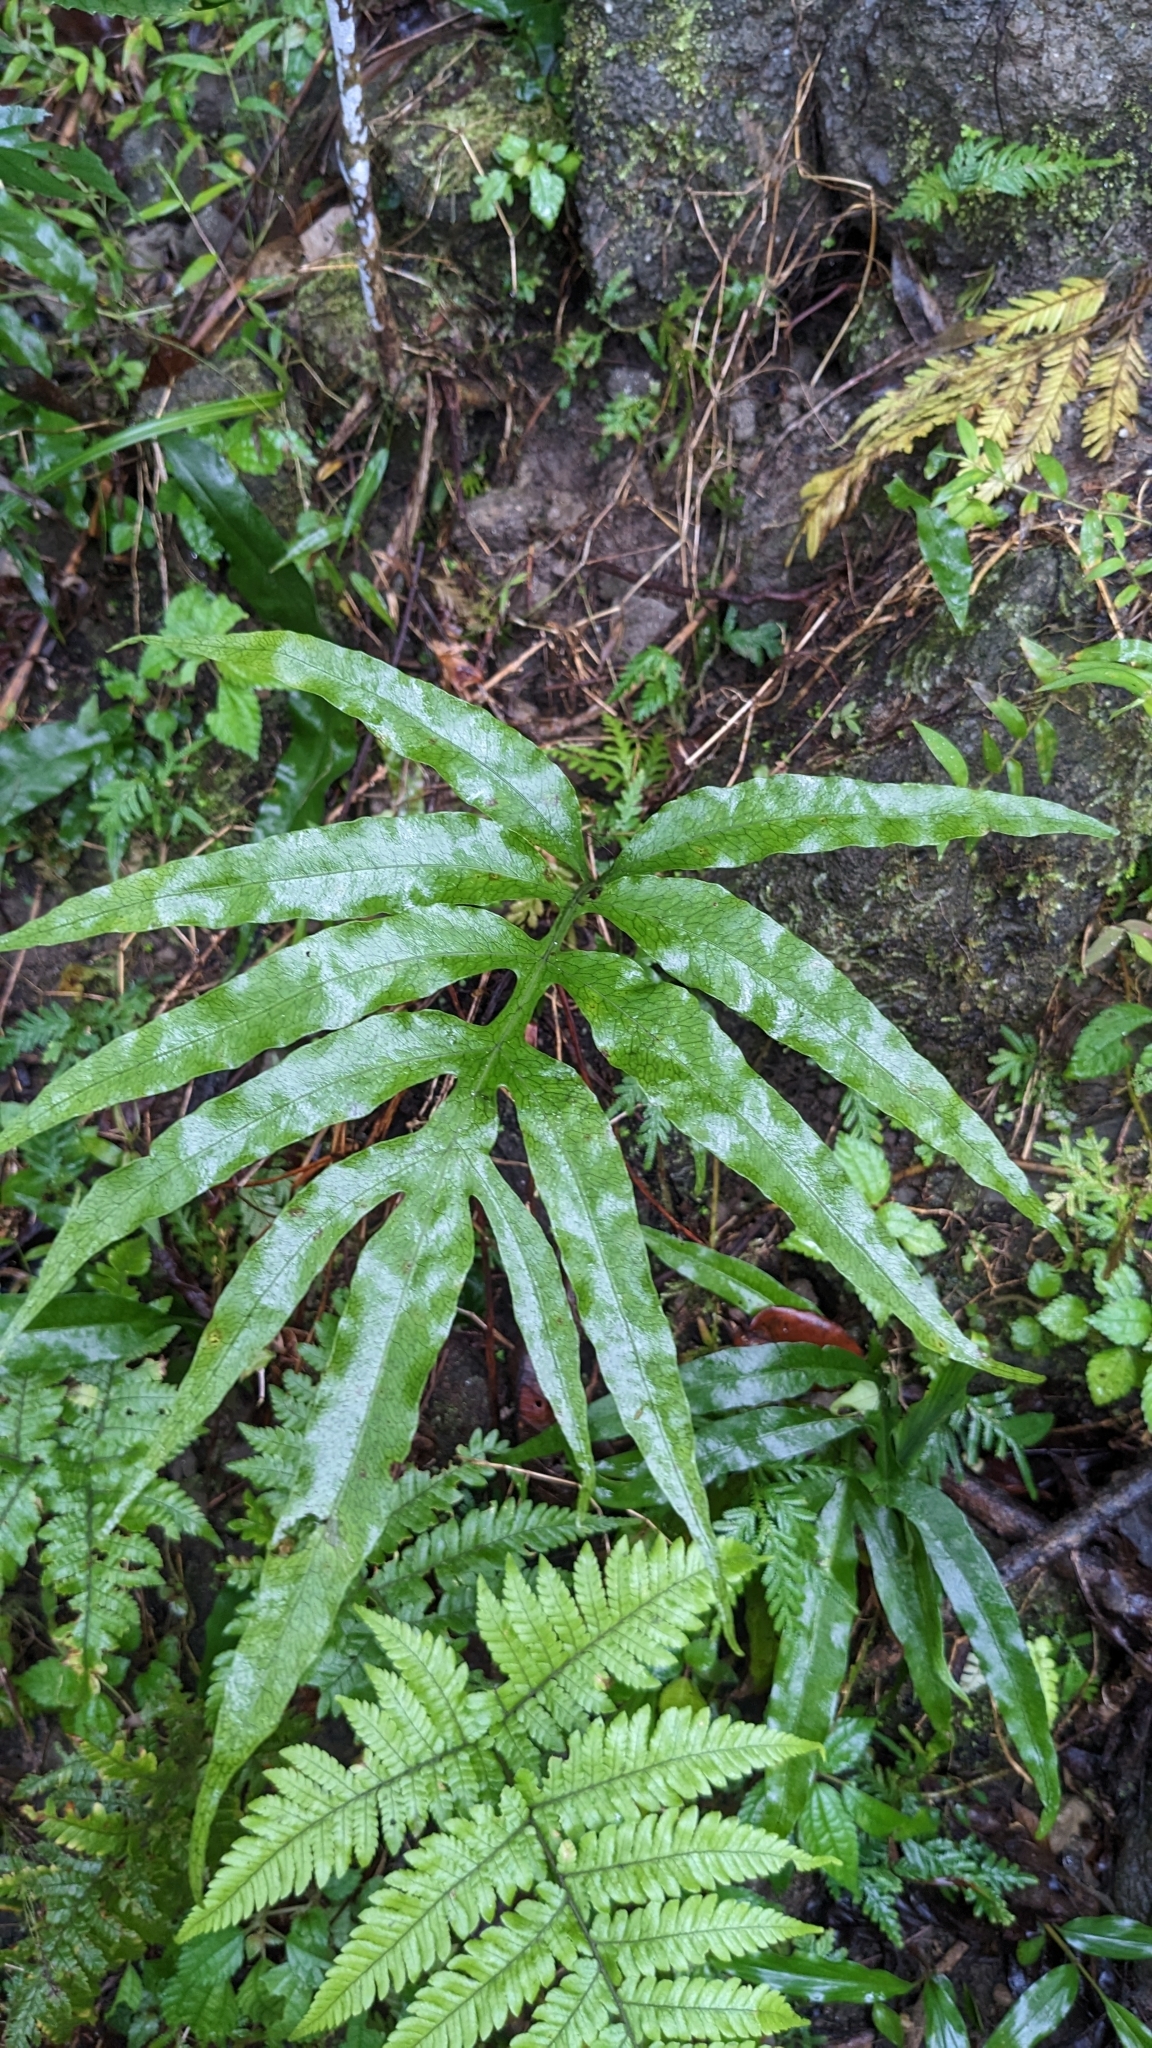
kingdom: Plantae
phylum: Tracheophyta
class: Polypodiopsida
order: Polypodiales
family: Polypodiaceae
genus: Leptochilus
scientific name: Leptochilus ellipticus
